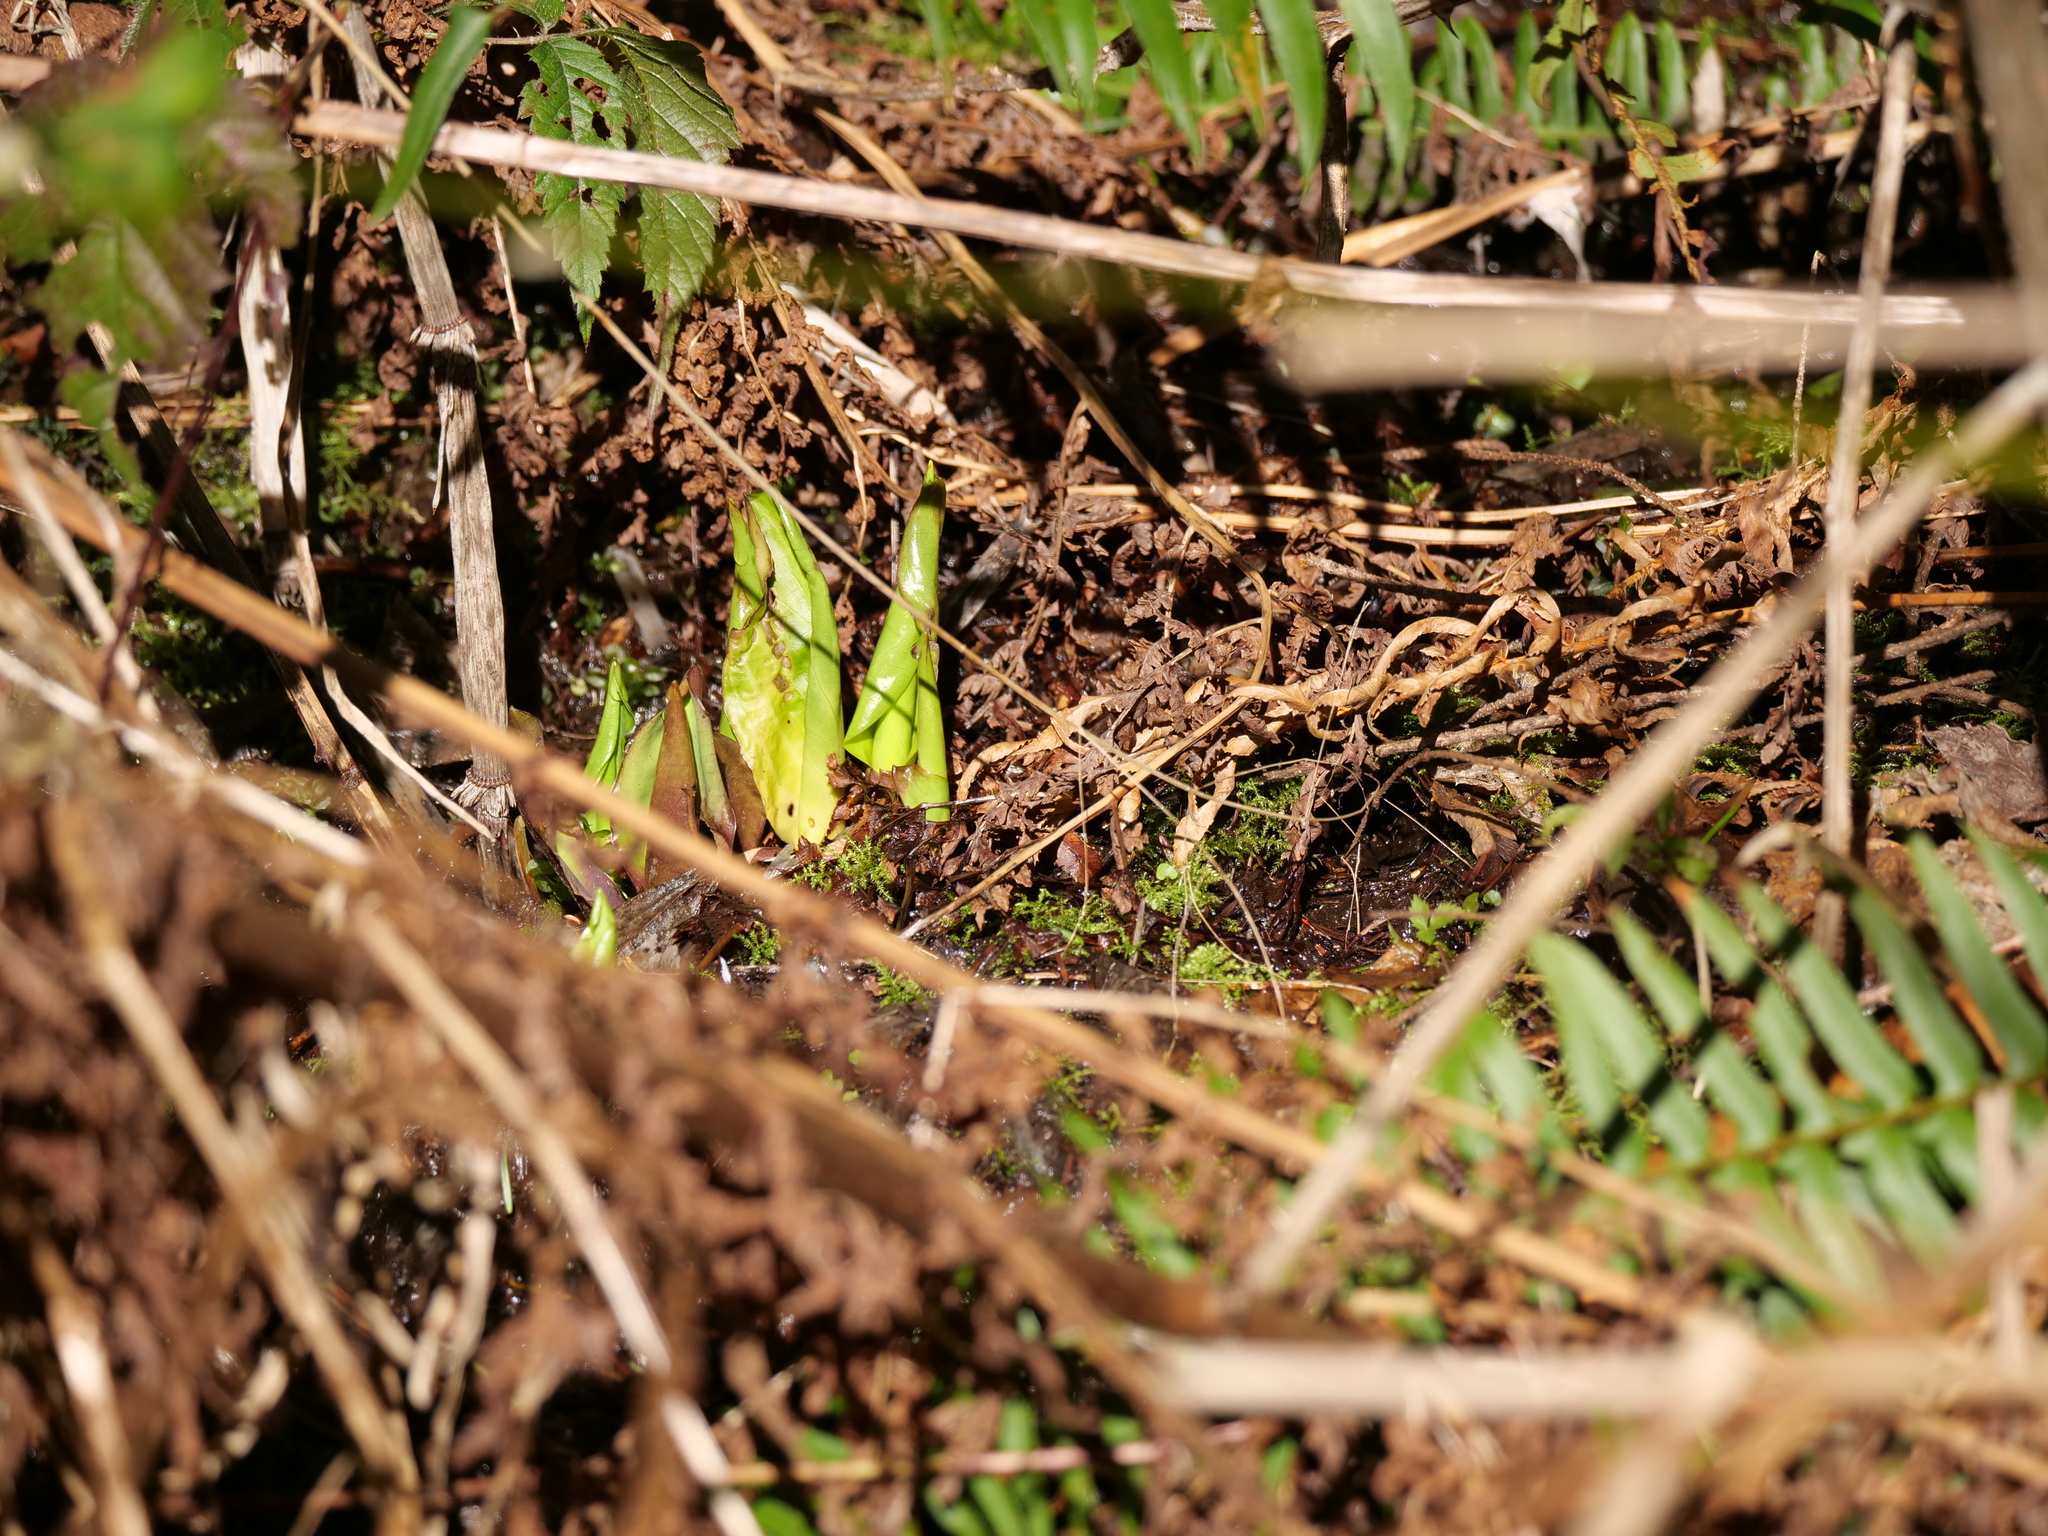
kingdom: Plantae
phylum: Tracheophyta
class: Liliopsida
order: Alismatales
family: Araceae
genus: Lysichiton
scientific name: Lysichiton americanus
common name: American skunk cabbage
